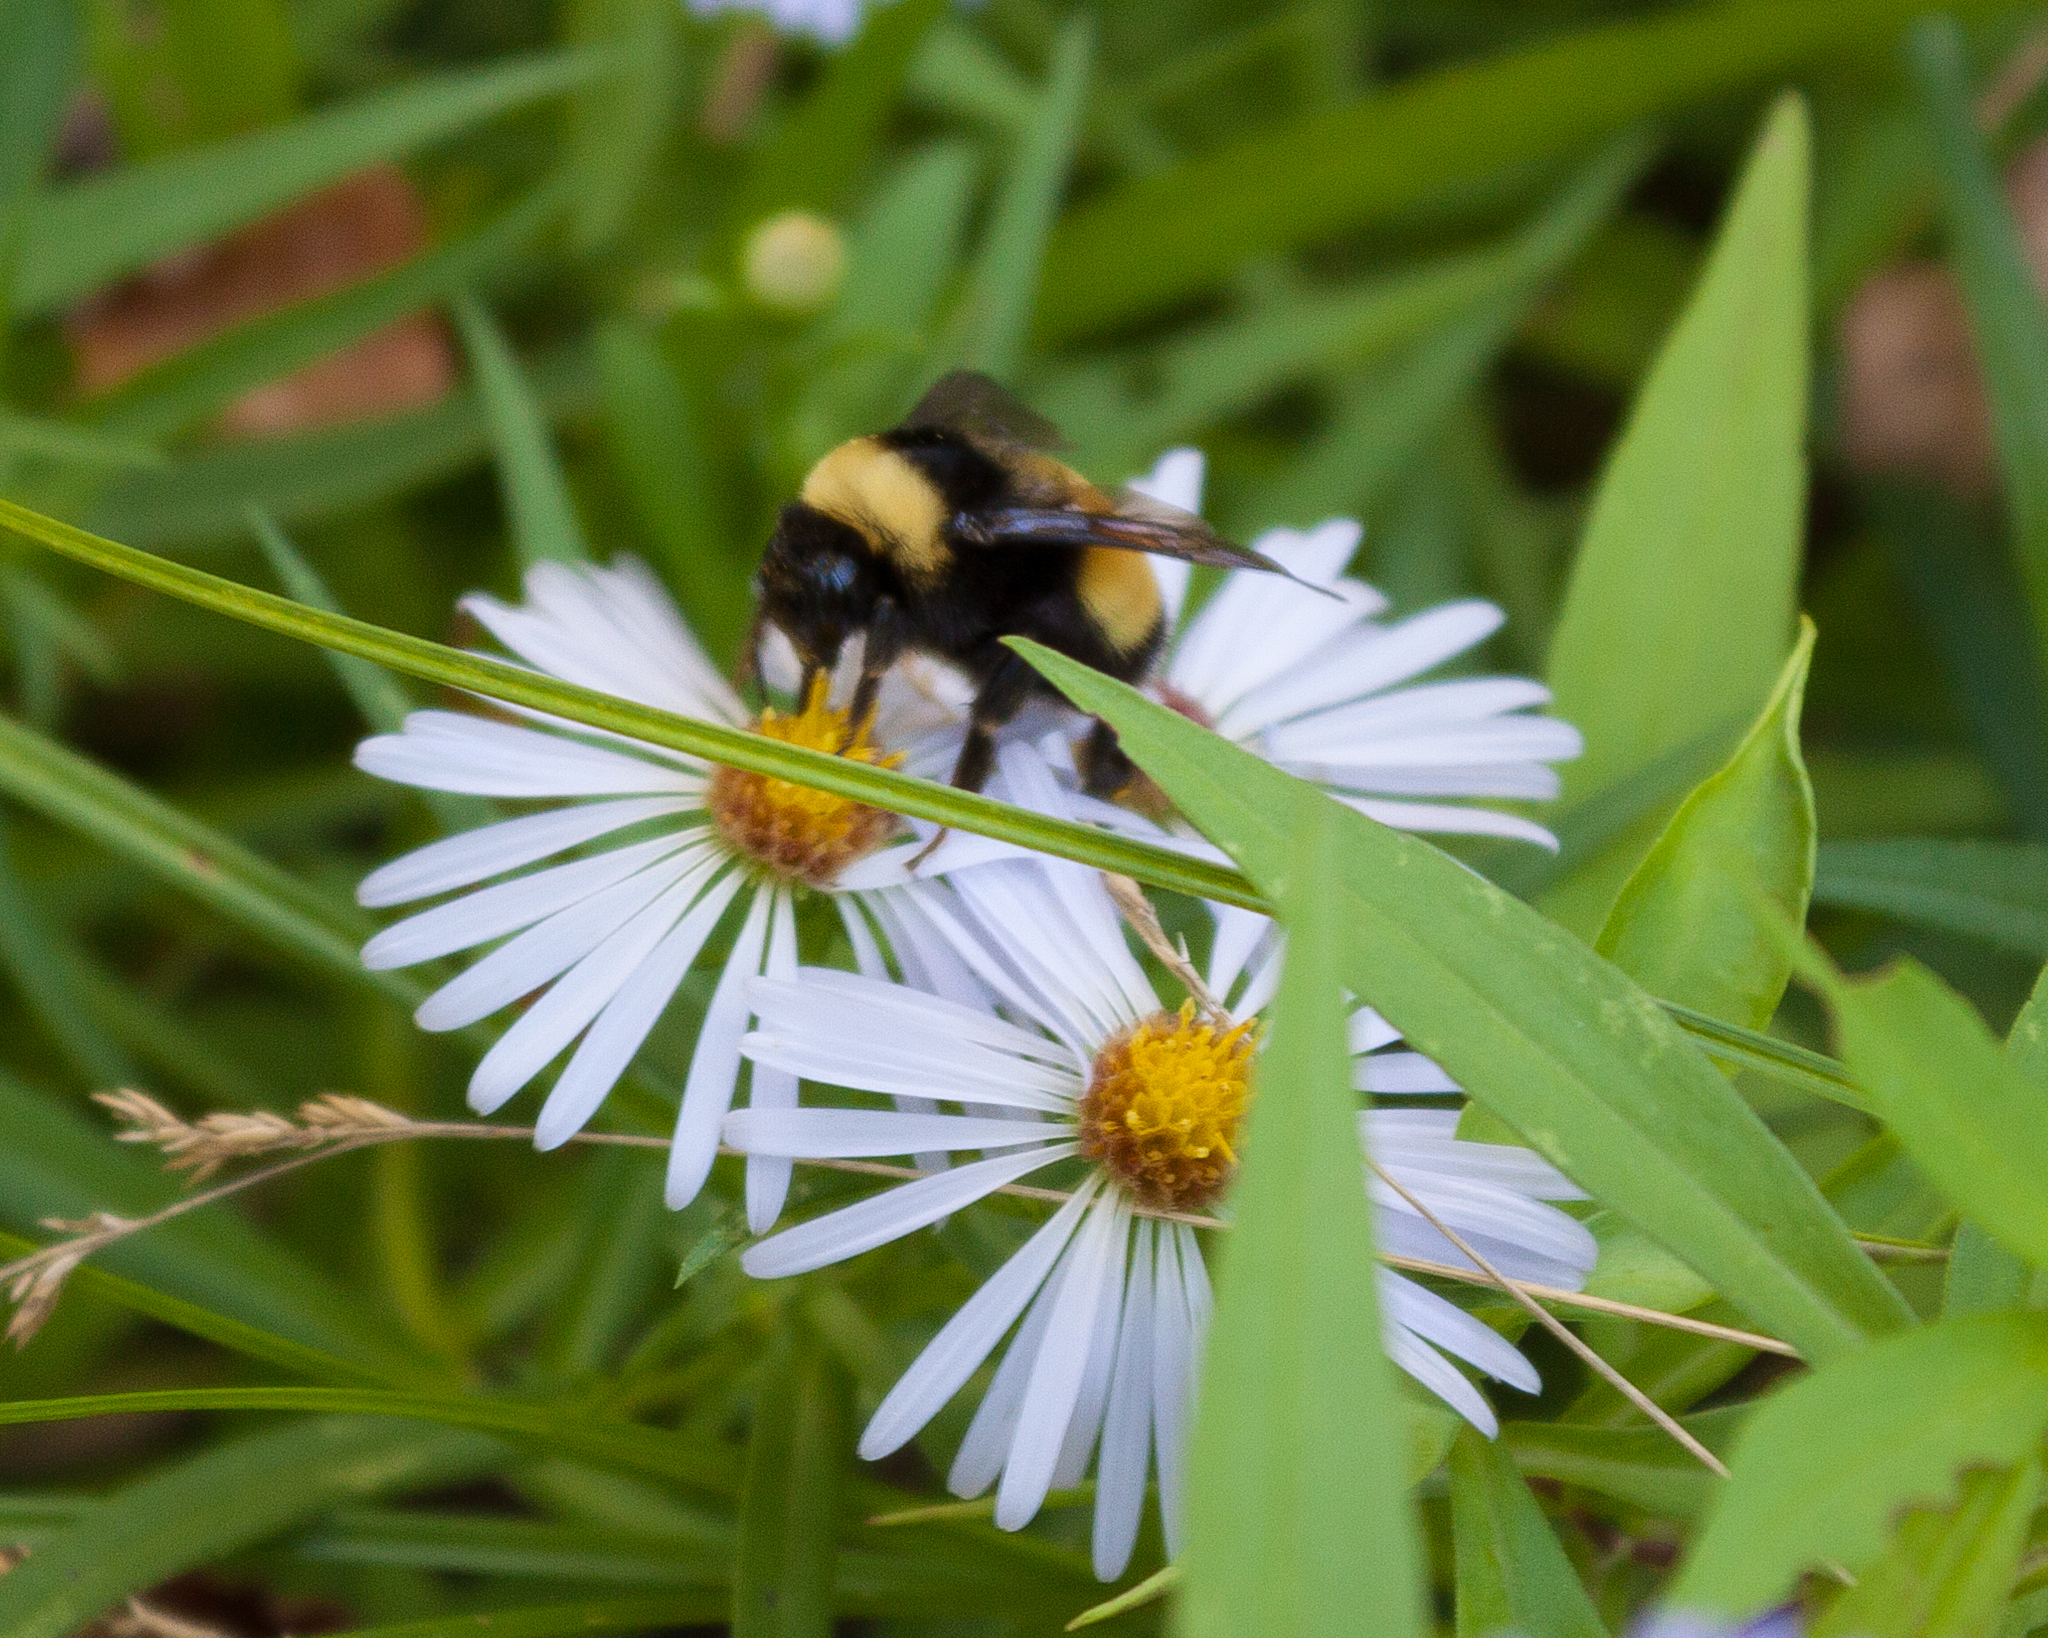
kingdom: Animalia
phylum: Arthropoda
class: Insecta
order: Hymenoptera
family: Apidae
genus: Bombus
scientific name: Bombus terricola
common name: Yellow-banded bumble bee
